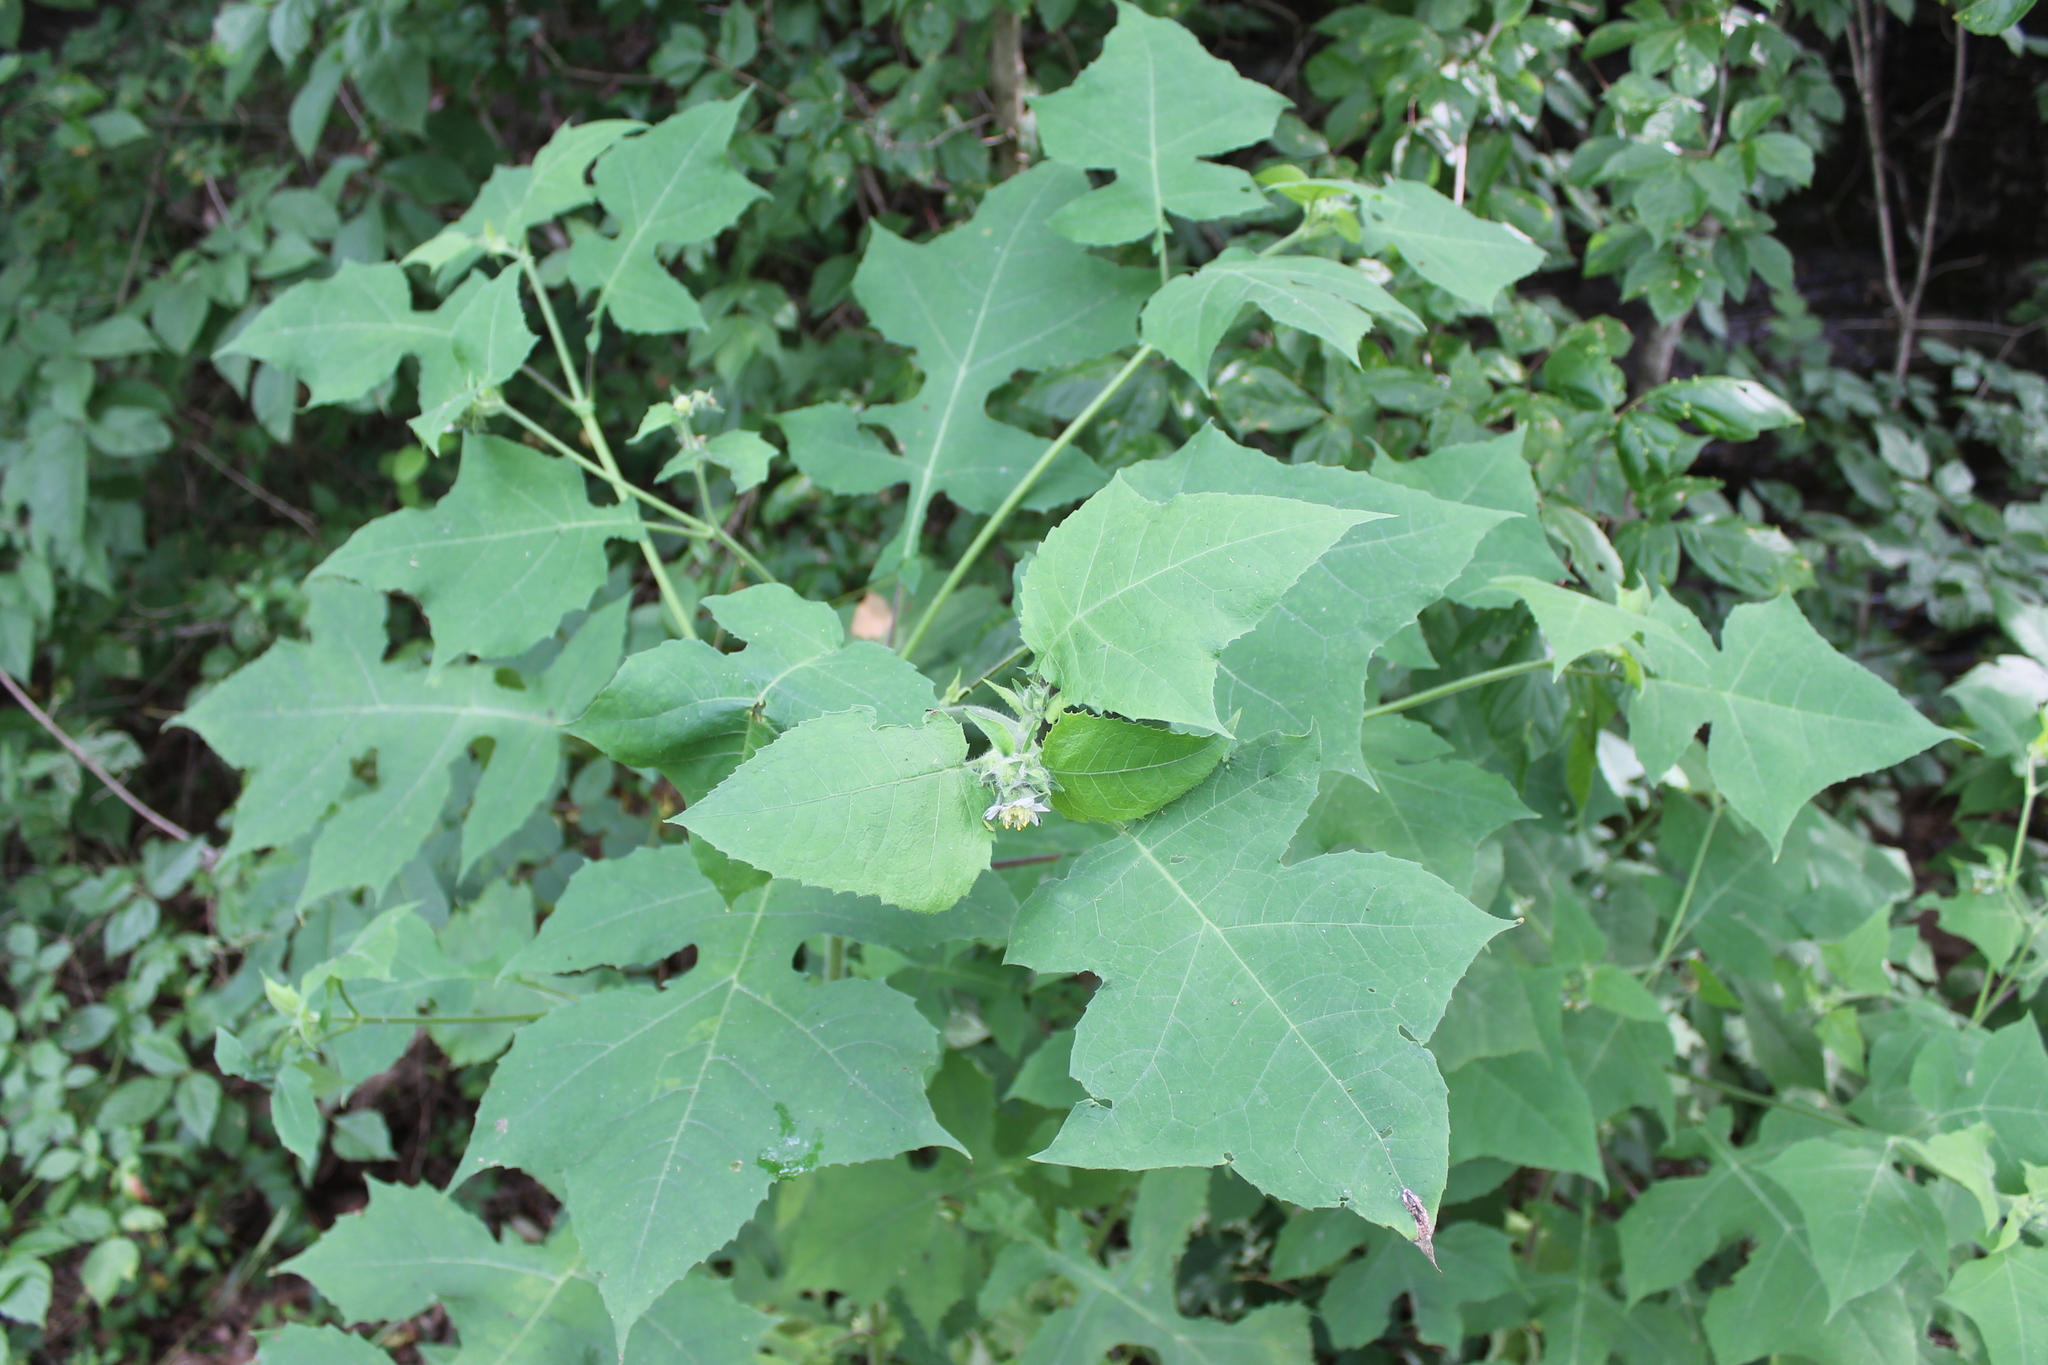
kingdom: Plantae
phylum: Tracheophyta
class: Magnoliopsida
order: Asterales
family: Asteraceae
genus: Polymnia
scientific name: Polymnia canadensis
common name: Pale-flowered leafcup
